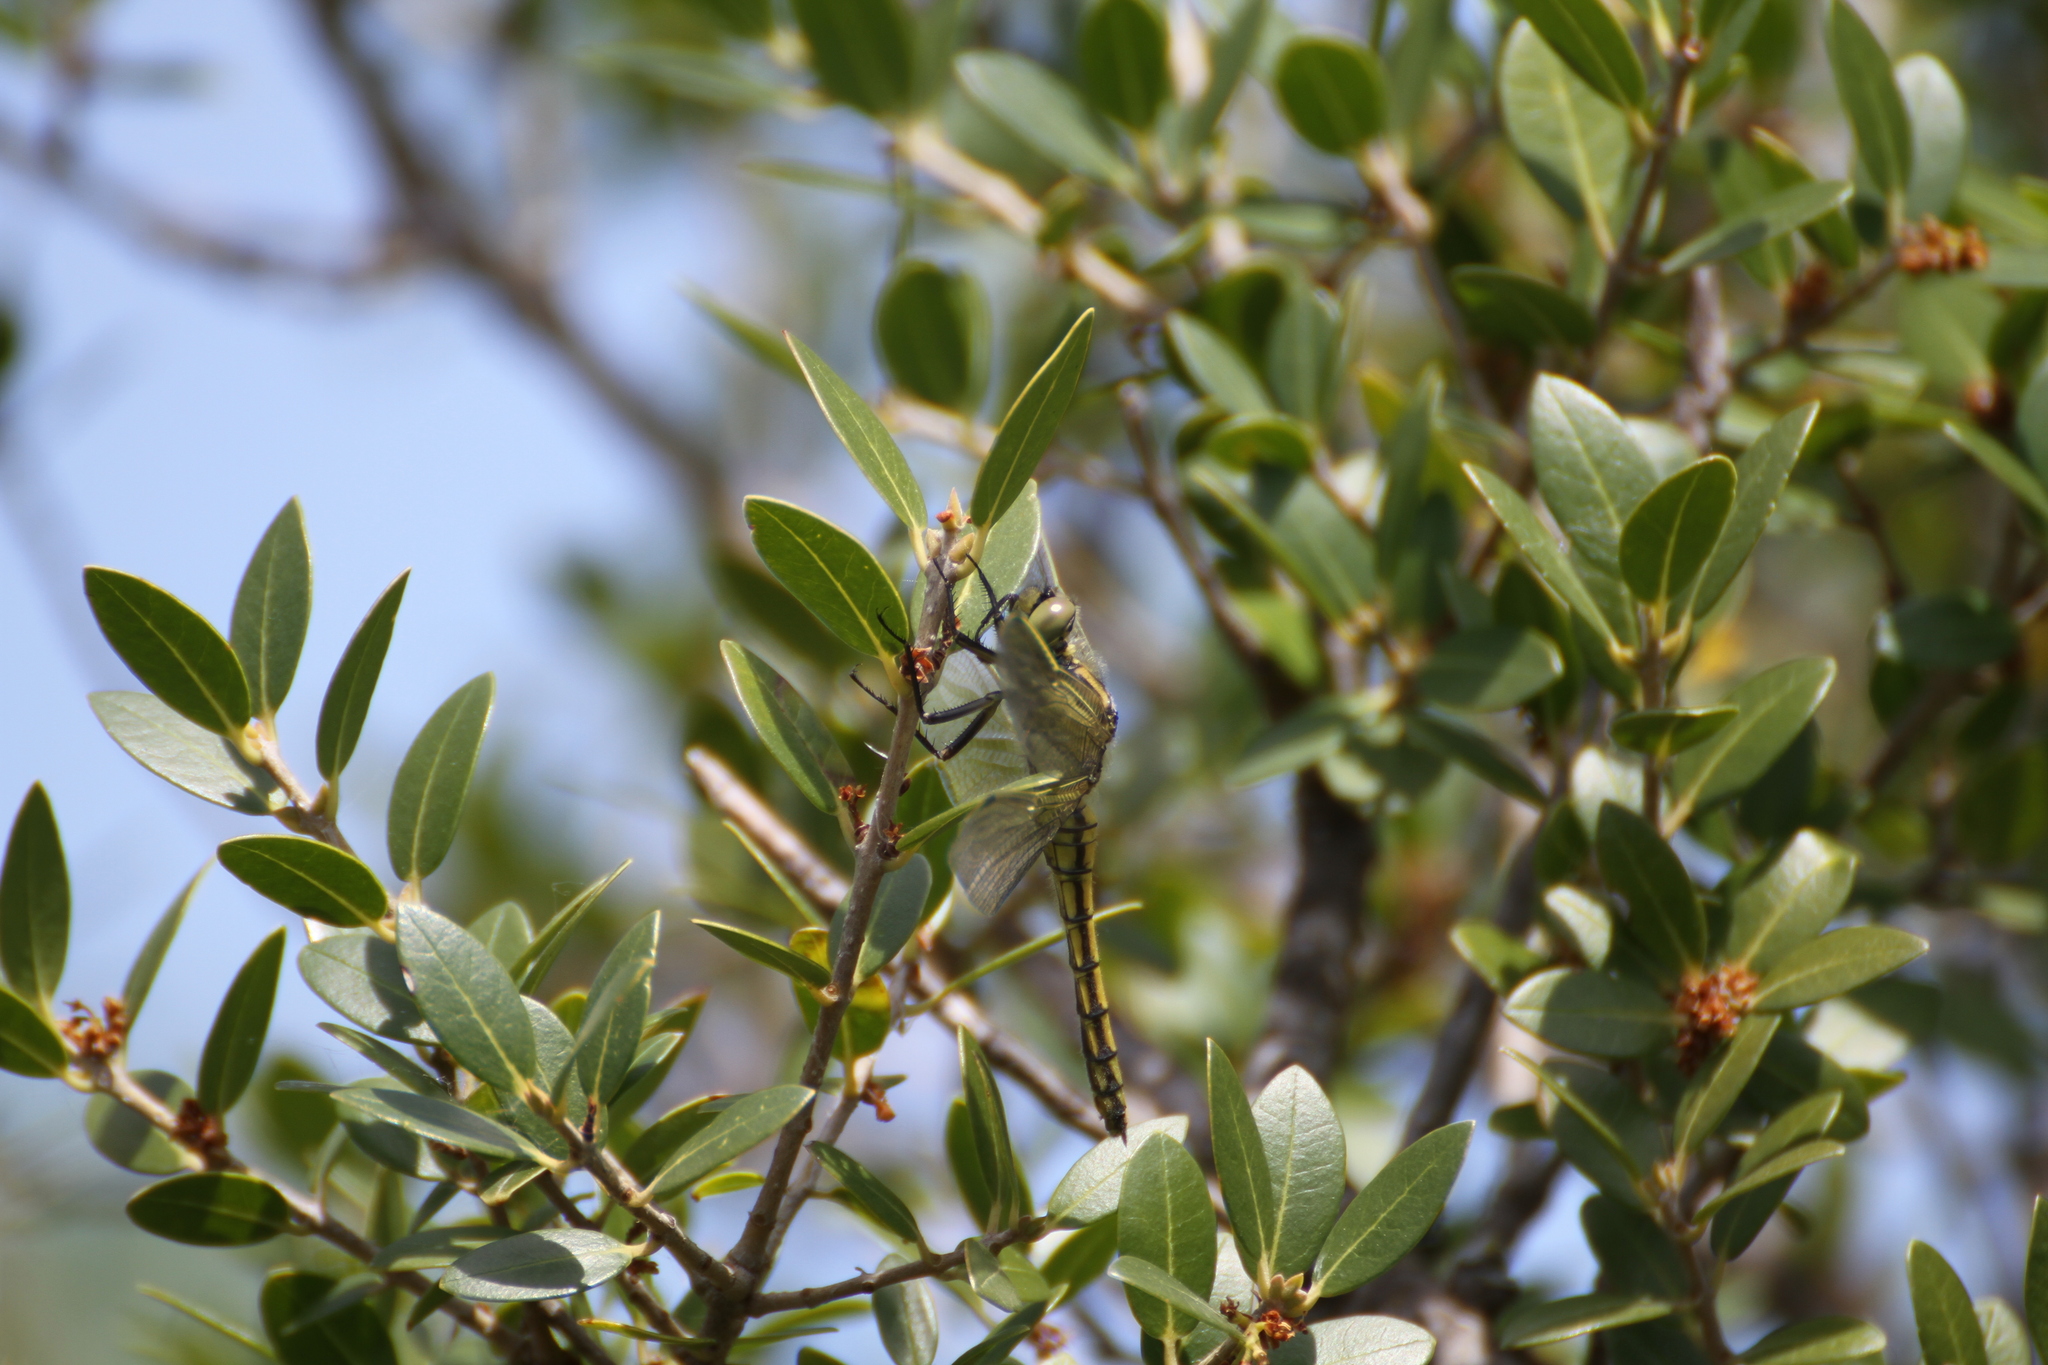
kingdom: Animalia
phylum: Arthropoda
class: Insecta
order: Odonata
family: Libellulidae
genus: Orthetrum
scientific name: Orthetrum cancellatum
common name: Black-tailed skimmer
